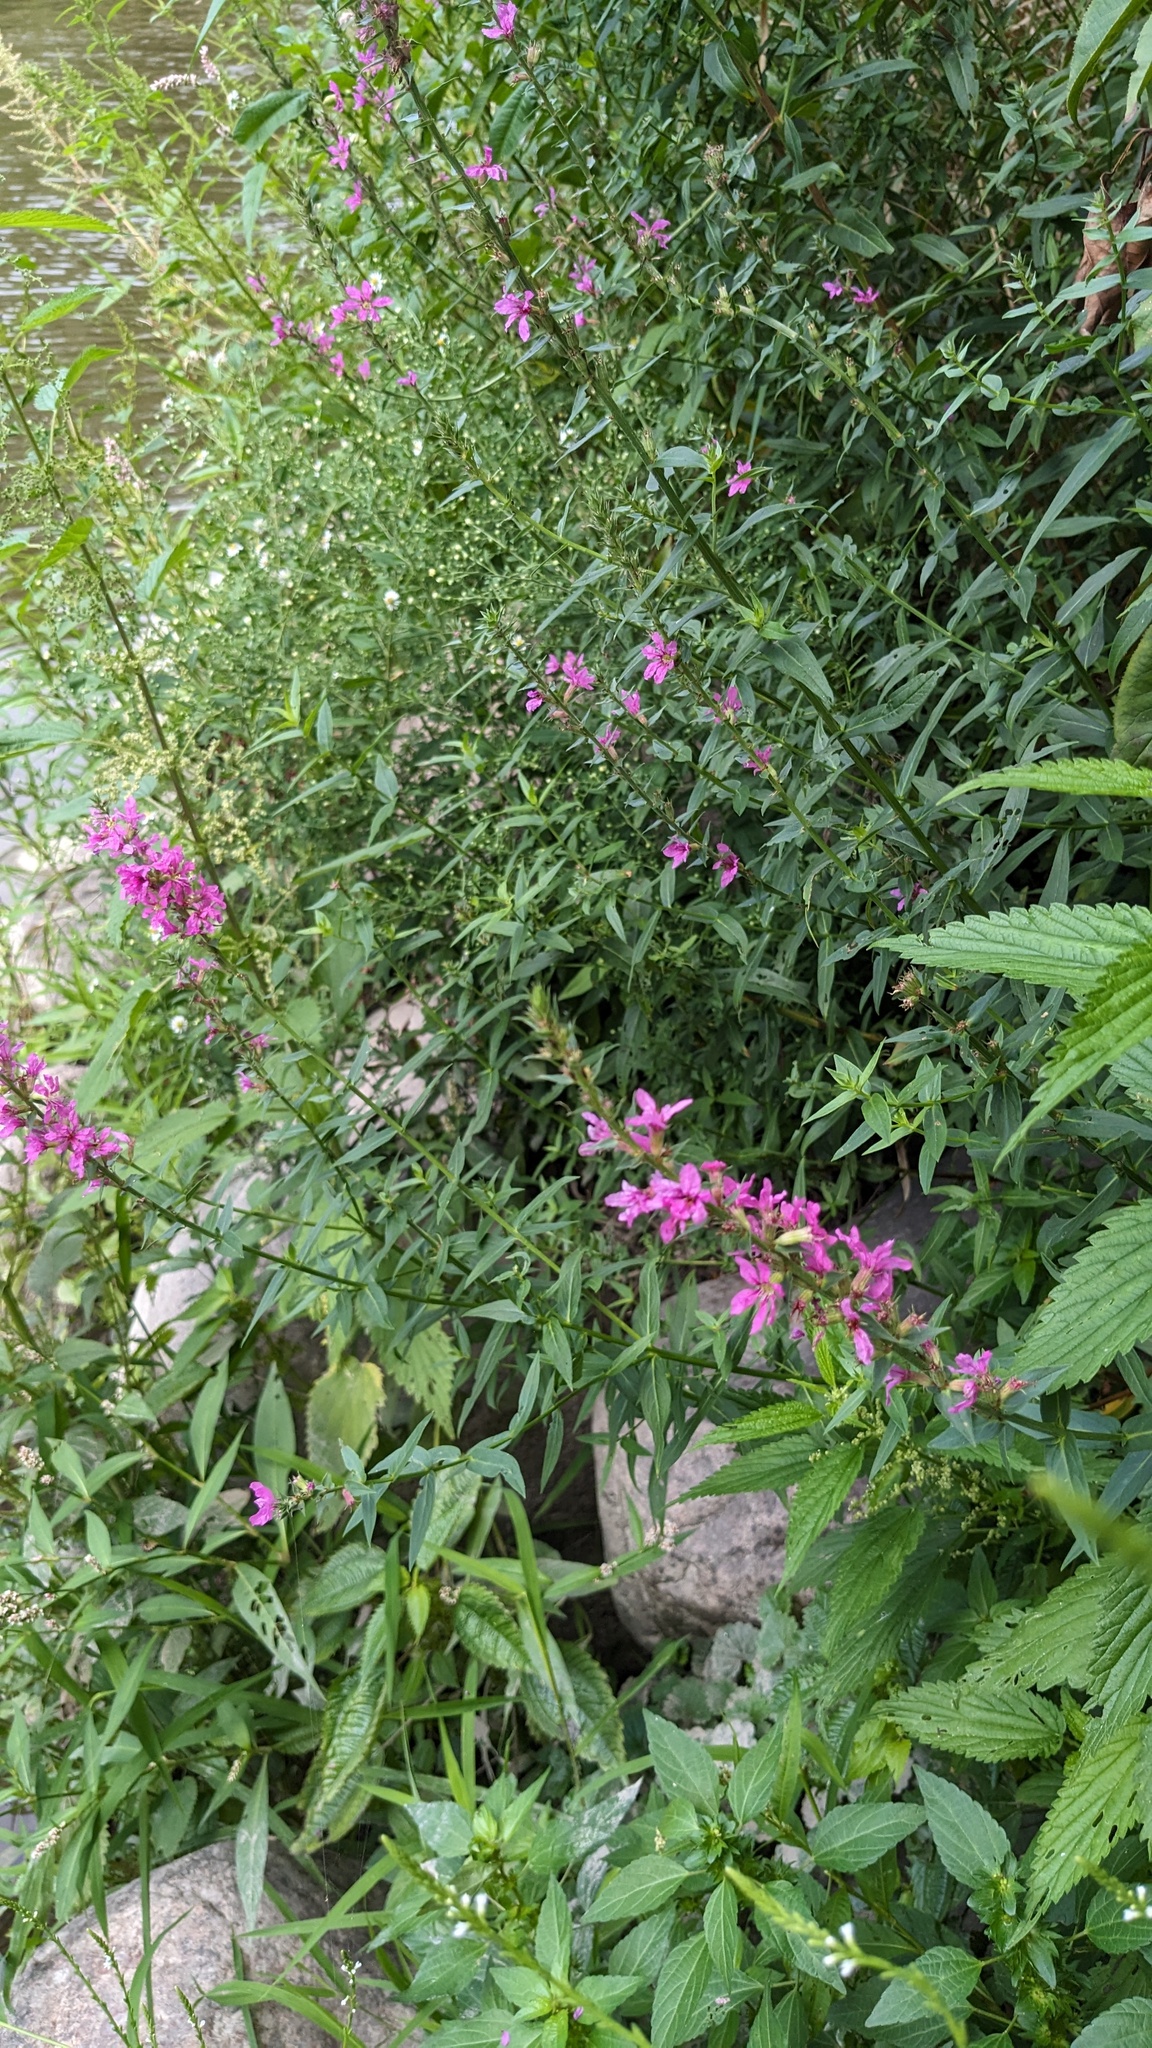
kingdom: Plantae
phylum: Tracheophyta
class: Magnoliopsida
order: Myrtales
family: Lythraceae
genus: Lythrum
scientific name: Lythrum salicaria
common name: Purple loosestrife
